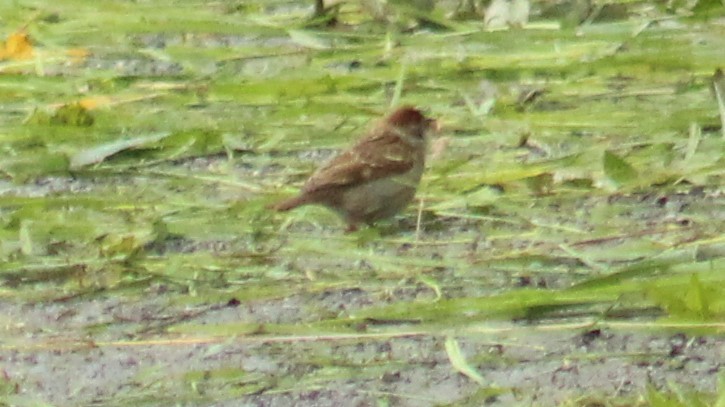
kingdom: Animalia
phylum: Chordata
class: Aves
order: Passeriformes
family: Passeridae
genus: Passer
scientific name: Passer montanus
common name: Eurasian tree sparrow
